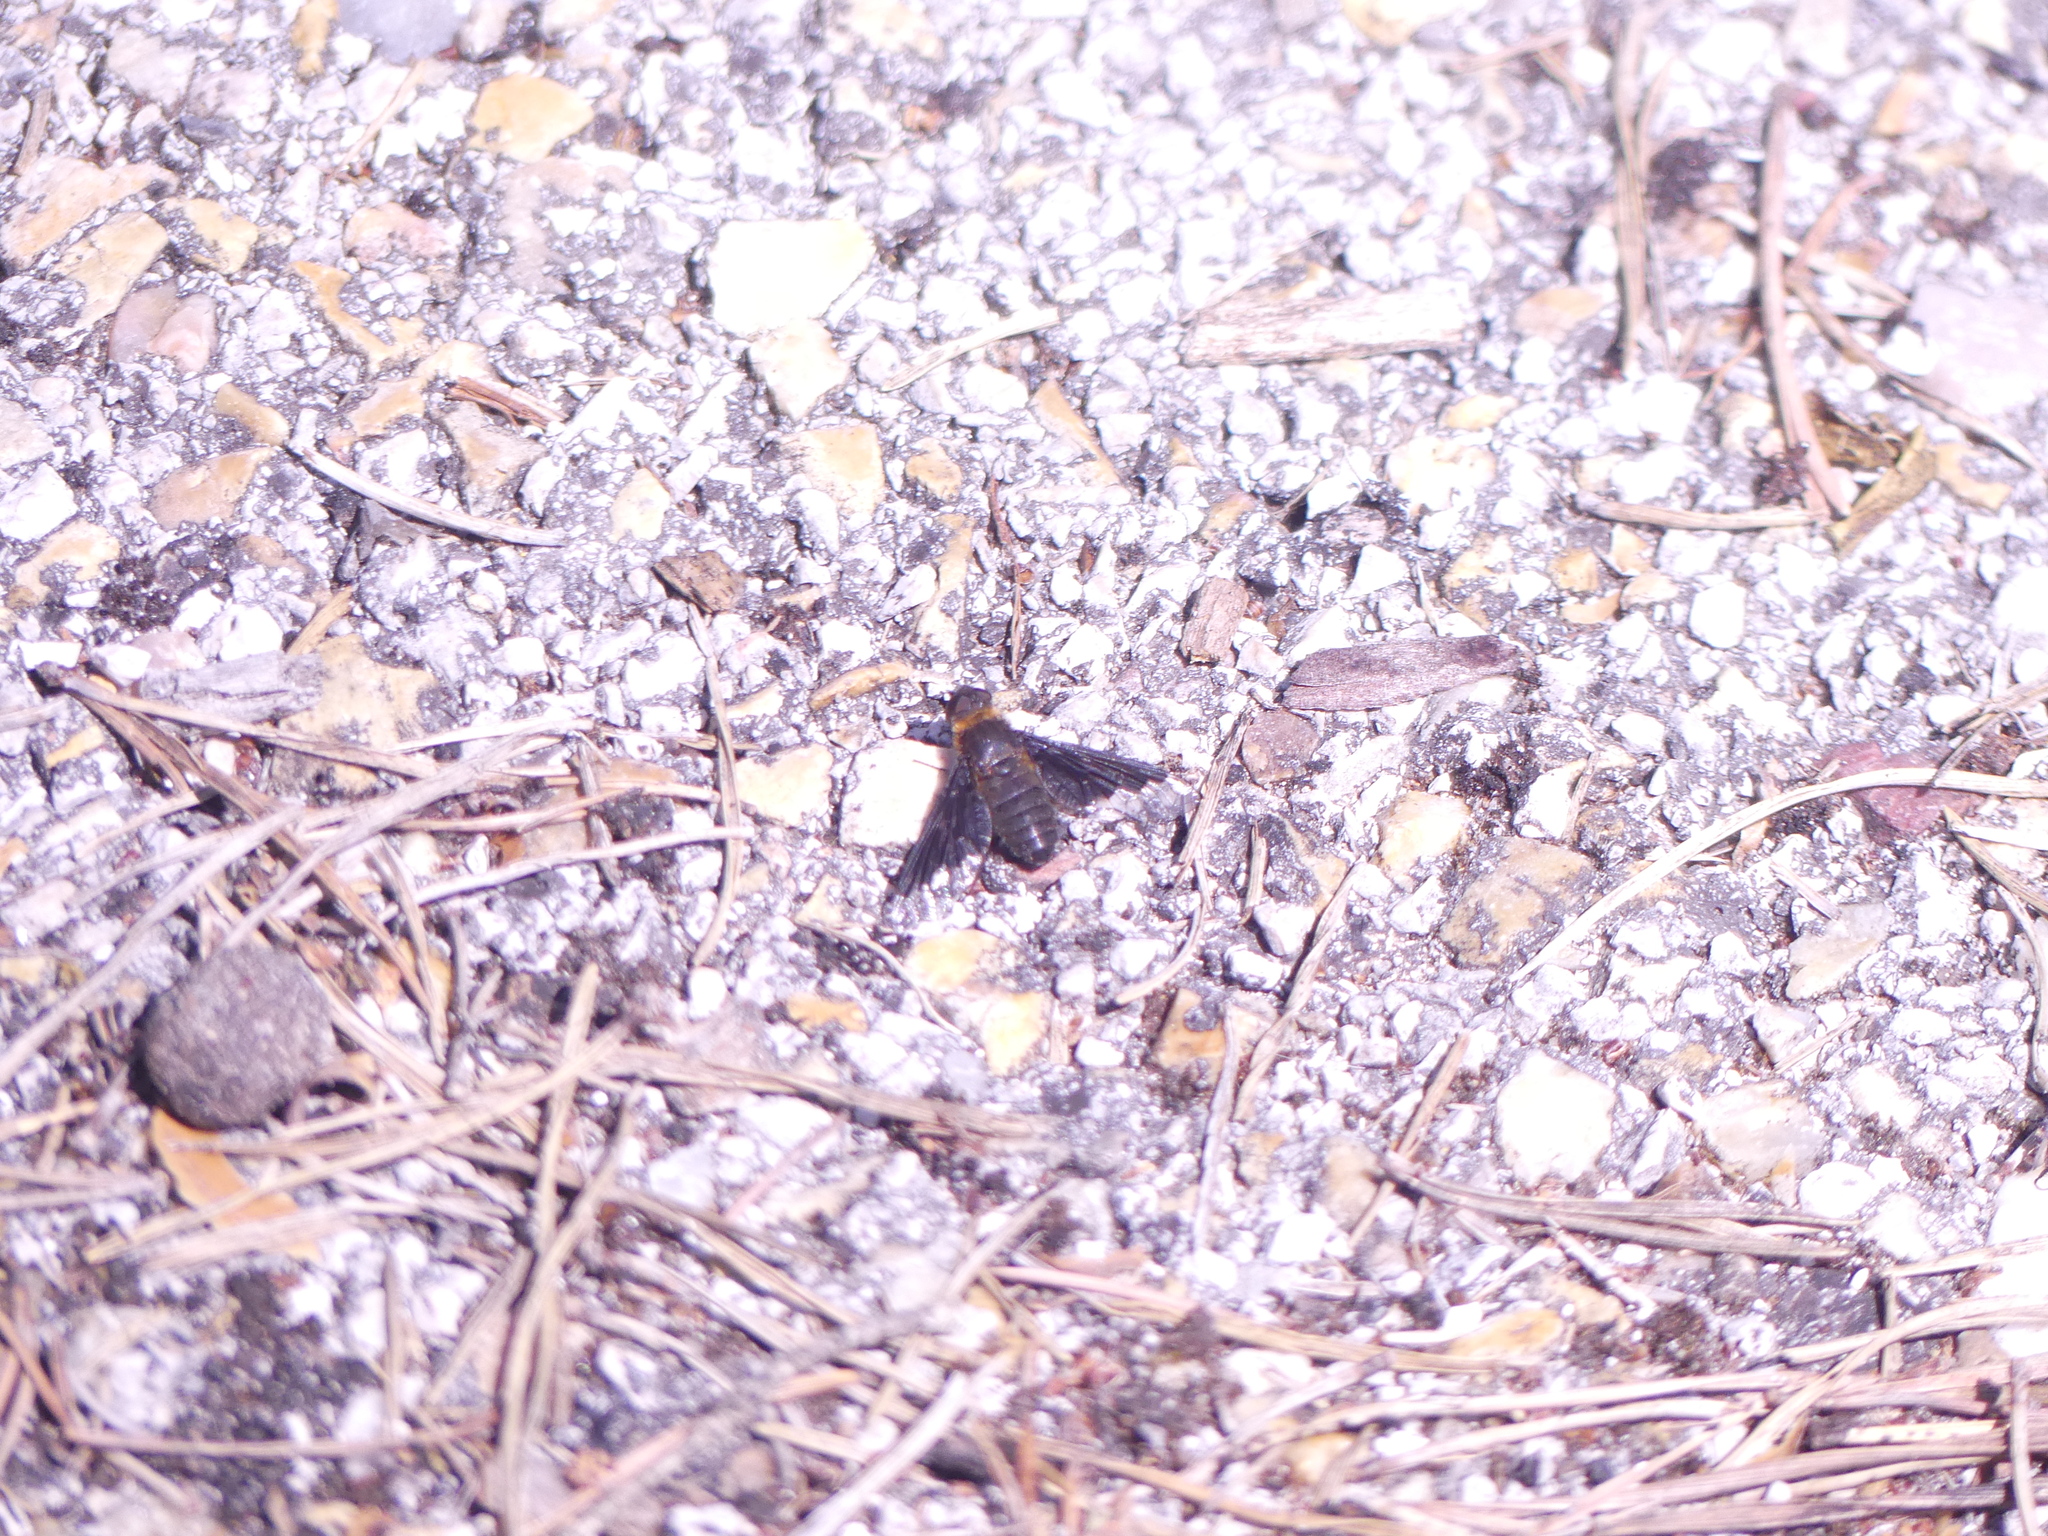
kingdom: Animalia
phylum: Arthropoda
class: Insecta
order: Diptera
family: Bombyliidae
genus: Hemipenthes
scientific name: Hemipenthes morio
